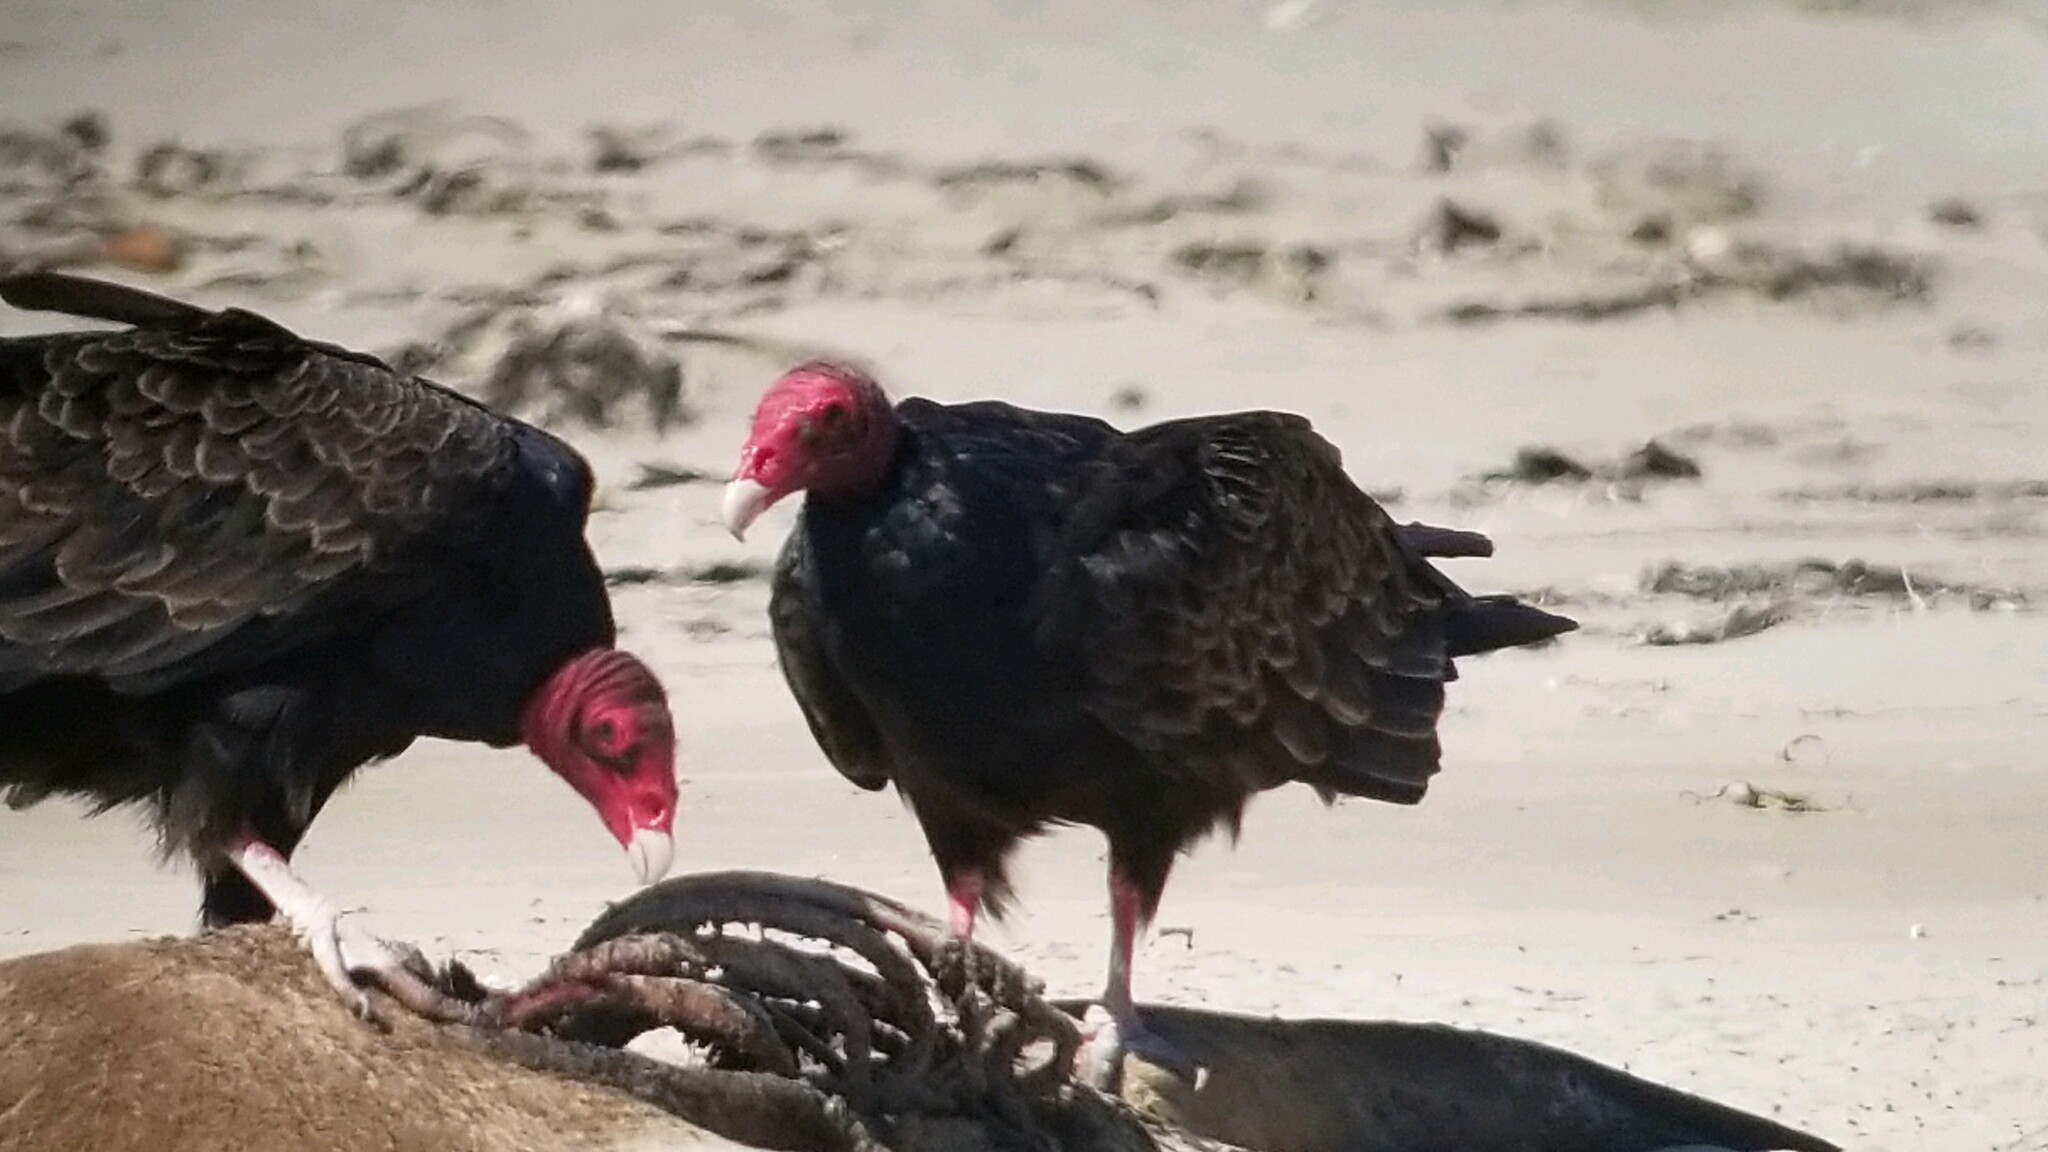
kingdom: Animalia
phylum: Chordata
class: Aves
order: Accipitriformes
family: Cathartidae
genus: Cathartes
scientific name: Cathartes aura
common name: Turkey vulture
